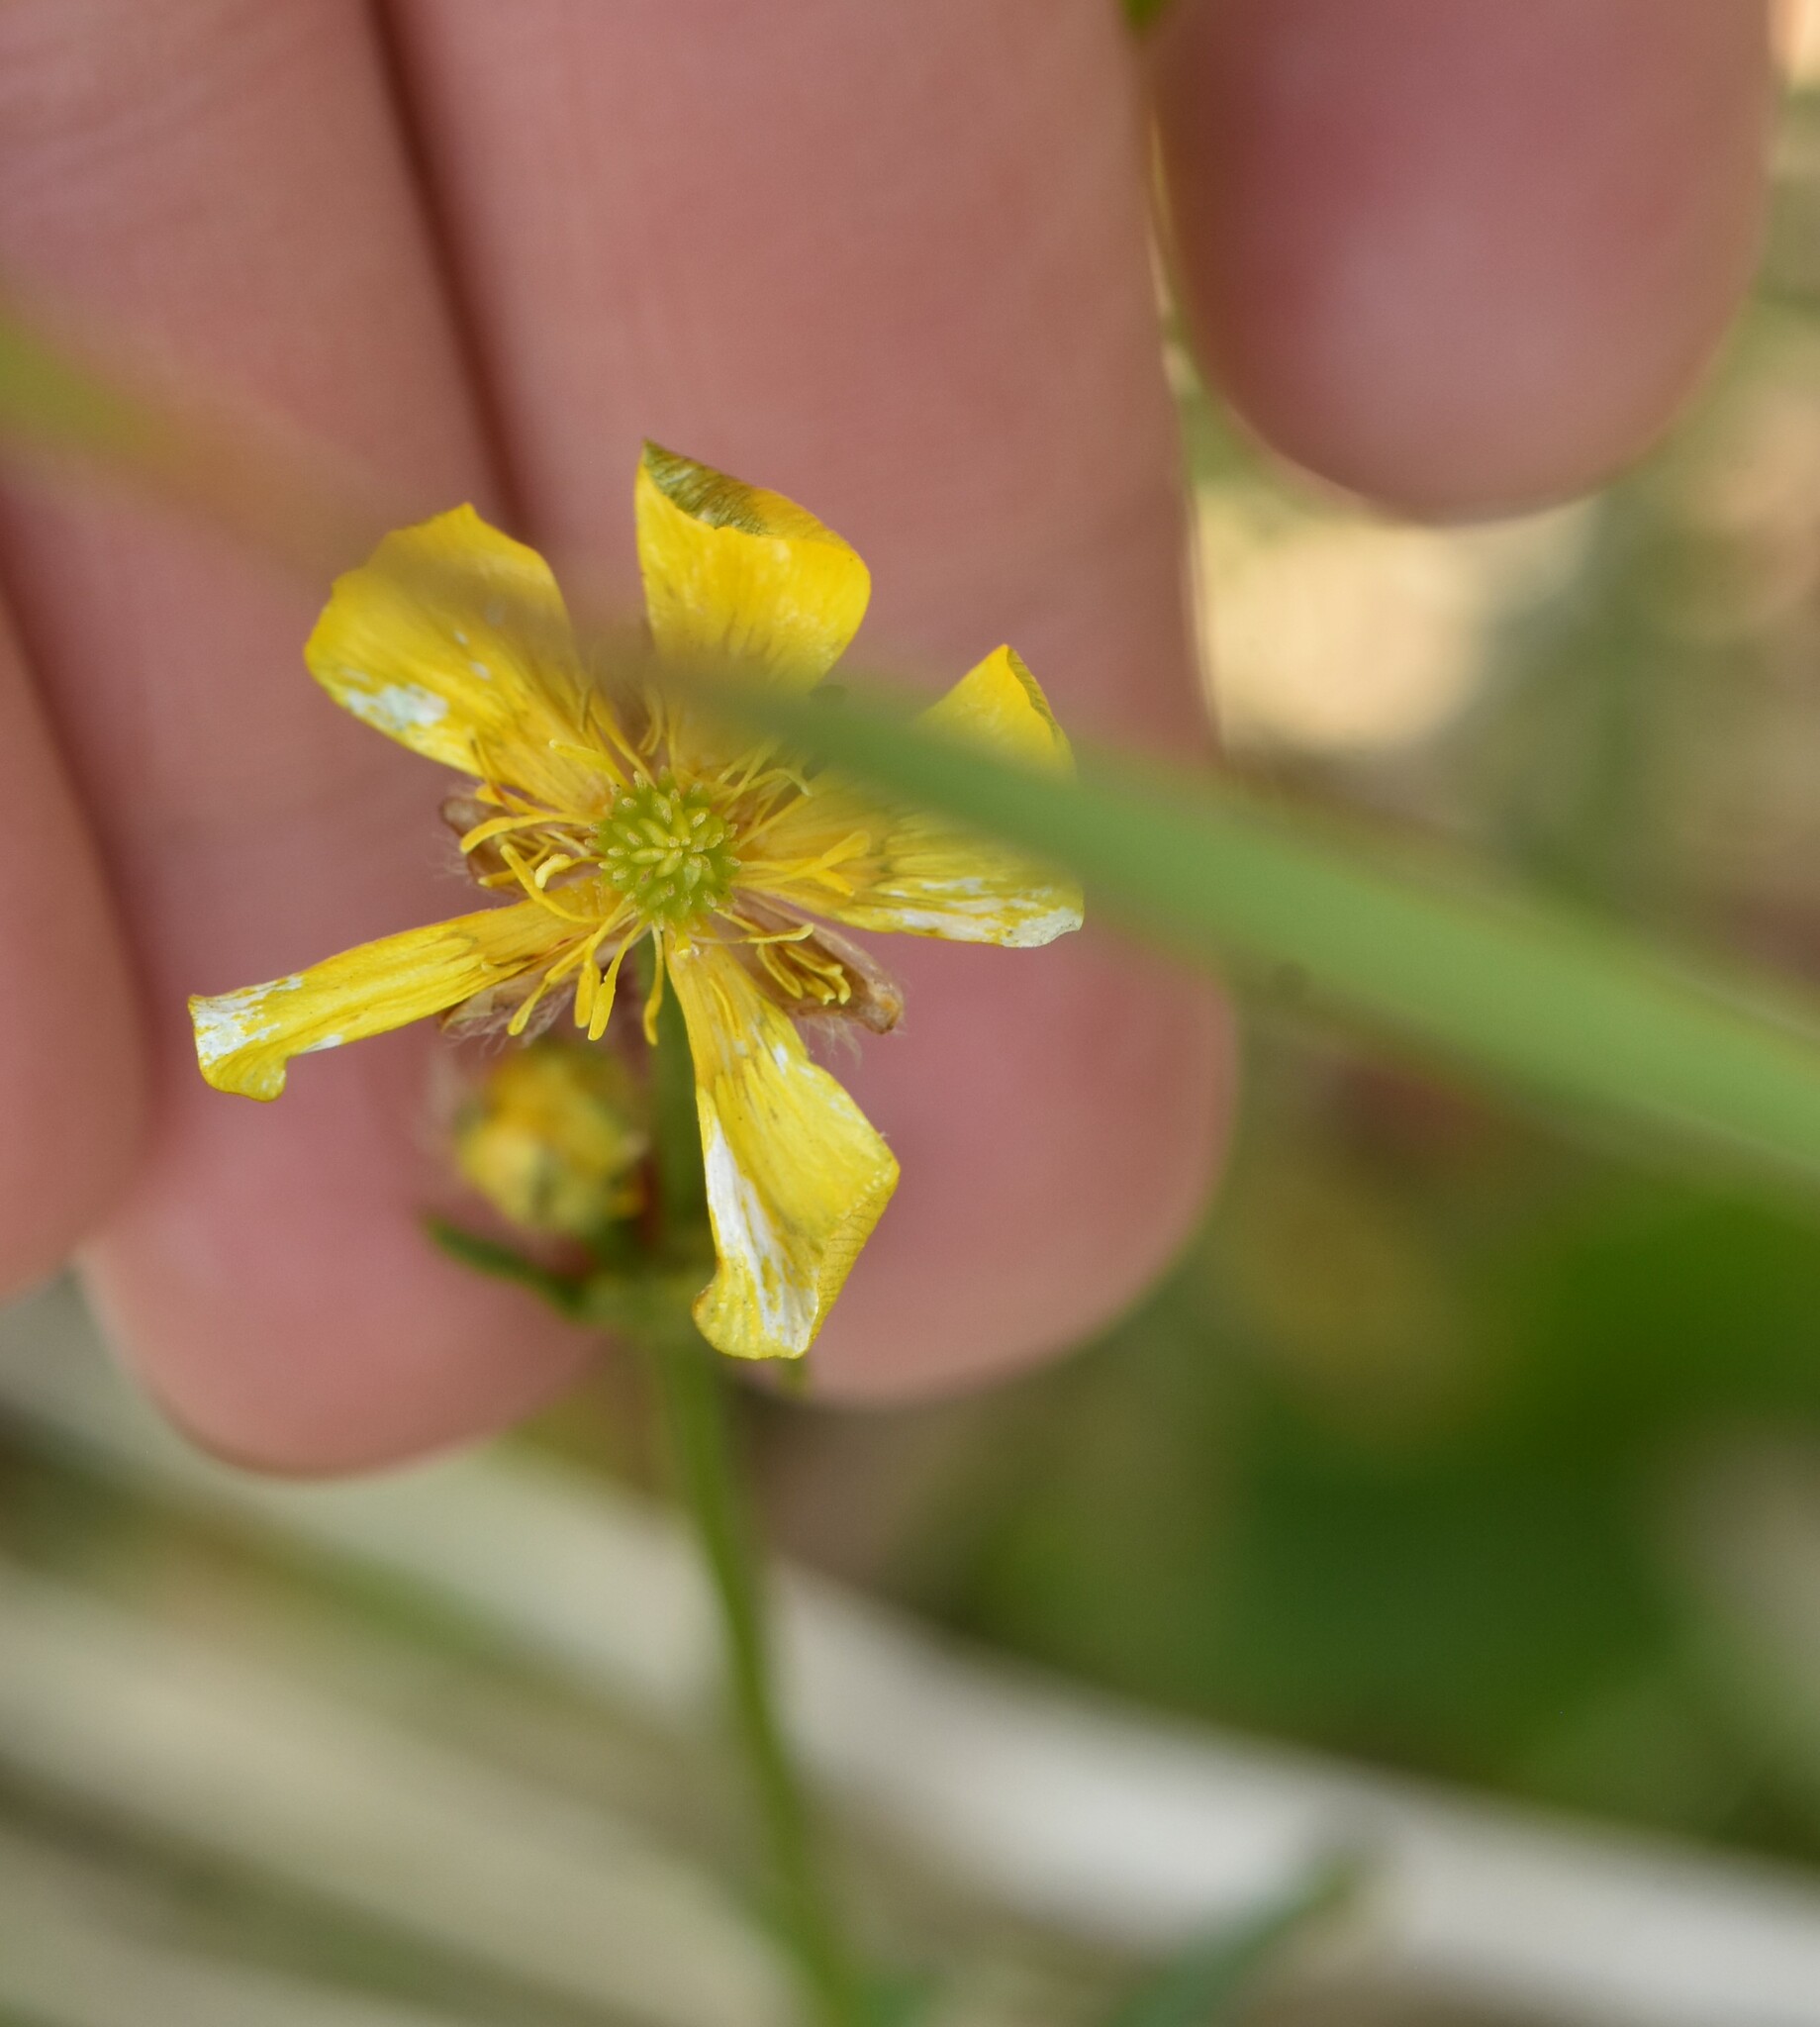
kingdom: Plantae
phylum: Tracheophyta
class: Magnoliopsida
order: Ranunculales
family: Ranunculaceae
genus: Ranunculus
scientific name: Ranunculus polyanthemos
